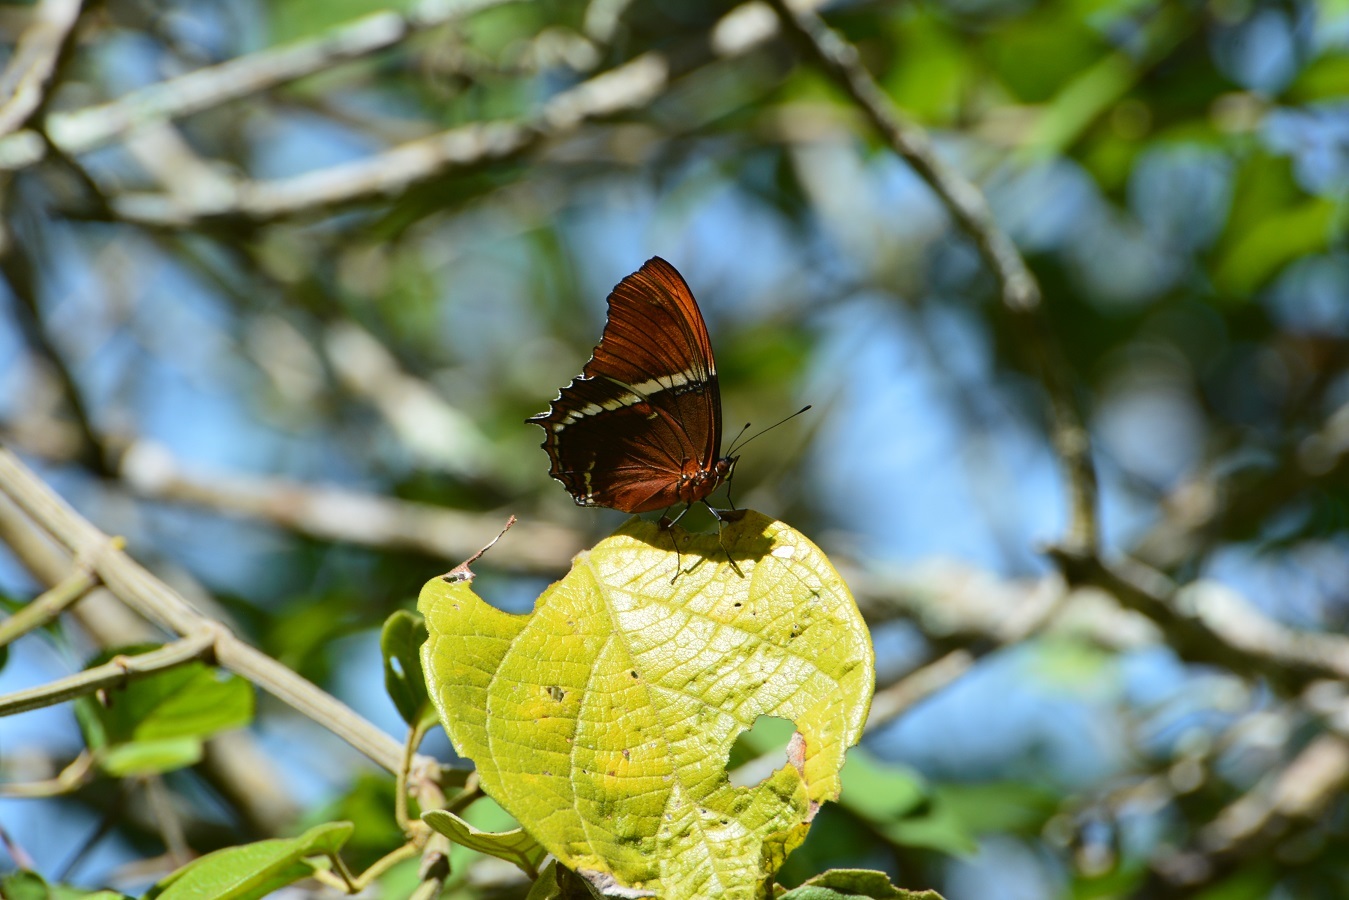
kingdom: Animalia
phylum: Arthropoda
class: Insecta
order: Lepidoptera
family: Nymphalidae
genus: Siproeta
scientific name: Siproeta epaphus
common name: Rusty-tipped page
